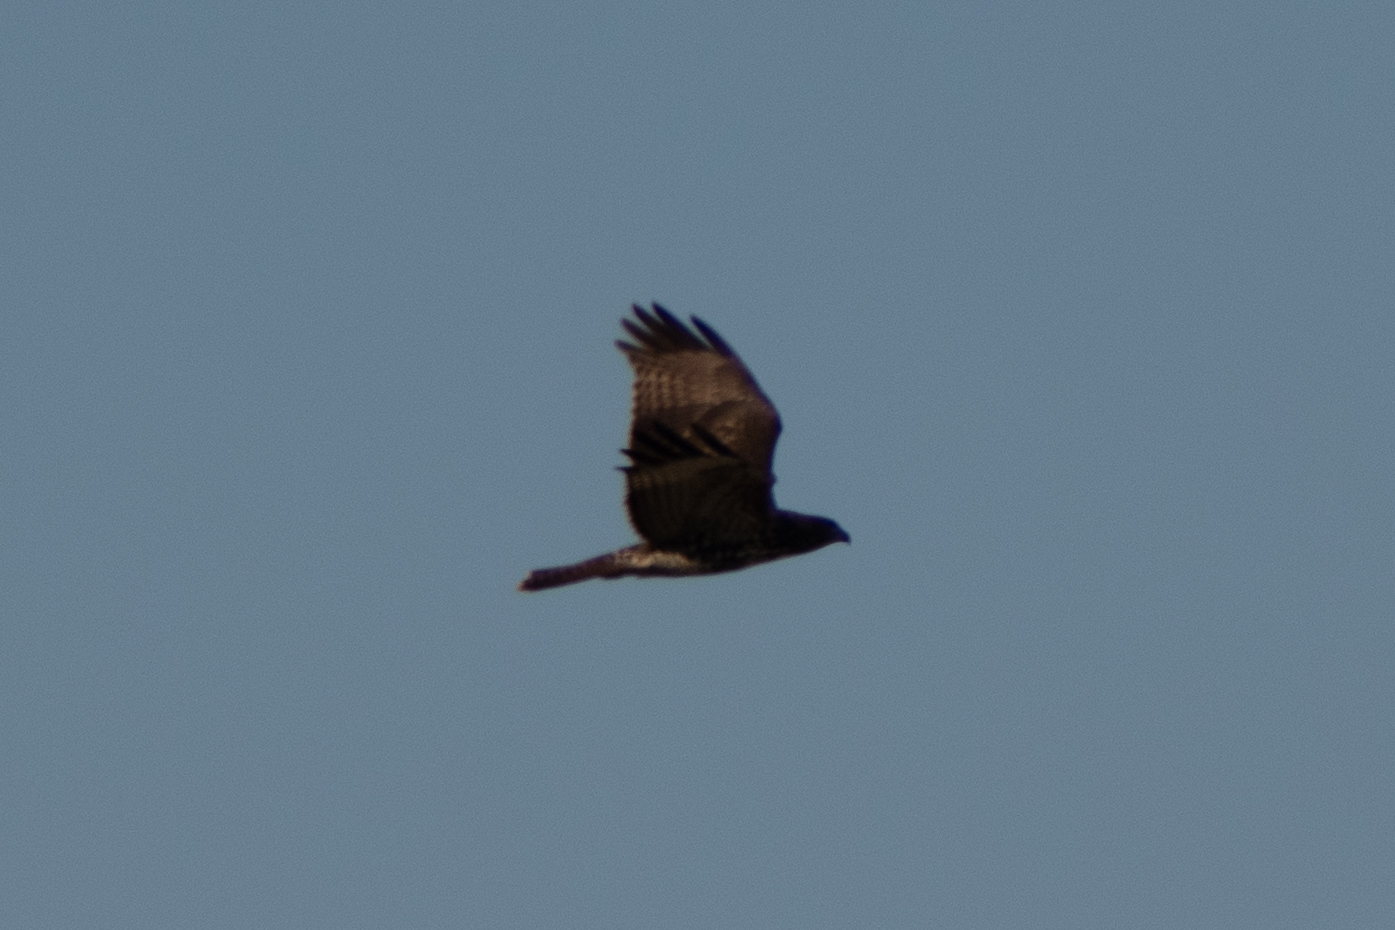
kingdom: Animalia
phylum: Chordata
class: Aves
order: Accipitriformes
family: Accipitridae
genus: Buteo
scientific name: Buteo jamaicensis
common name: Red-tailed hawk
